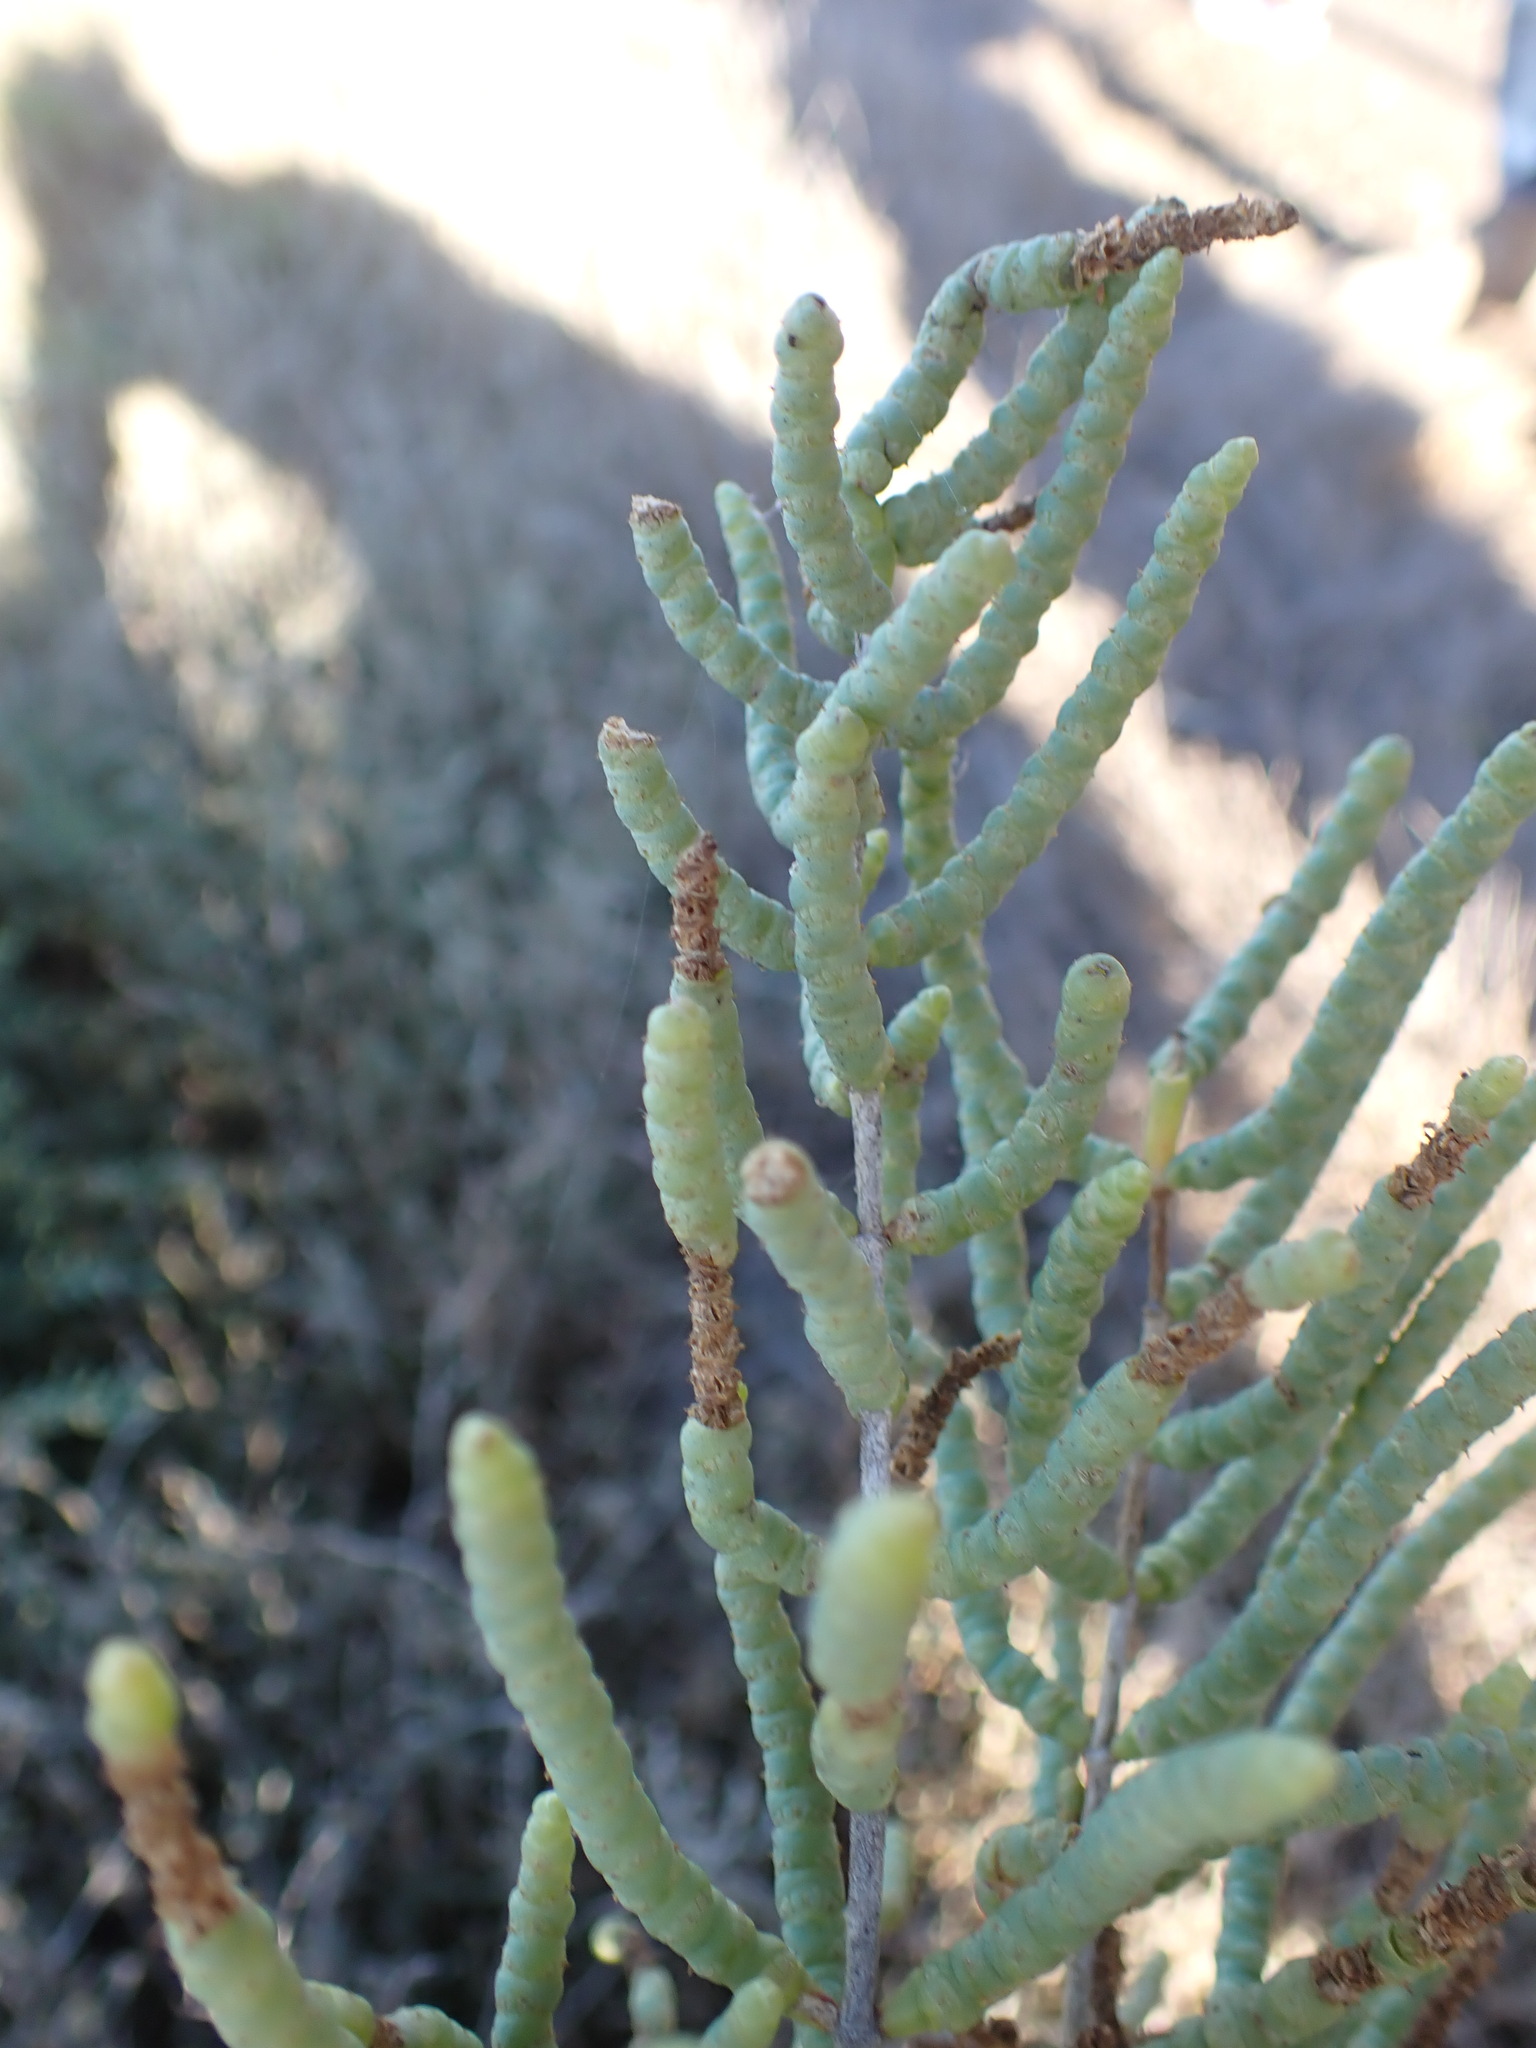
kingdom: Plantae
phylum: Tracheophyta
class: Magnoliopsida
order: Caryophyllales
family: Amaranthaceae
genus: Salicornia
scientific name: Salicornia fruticosa
